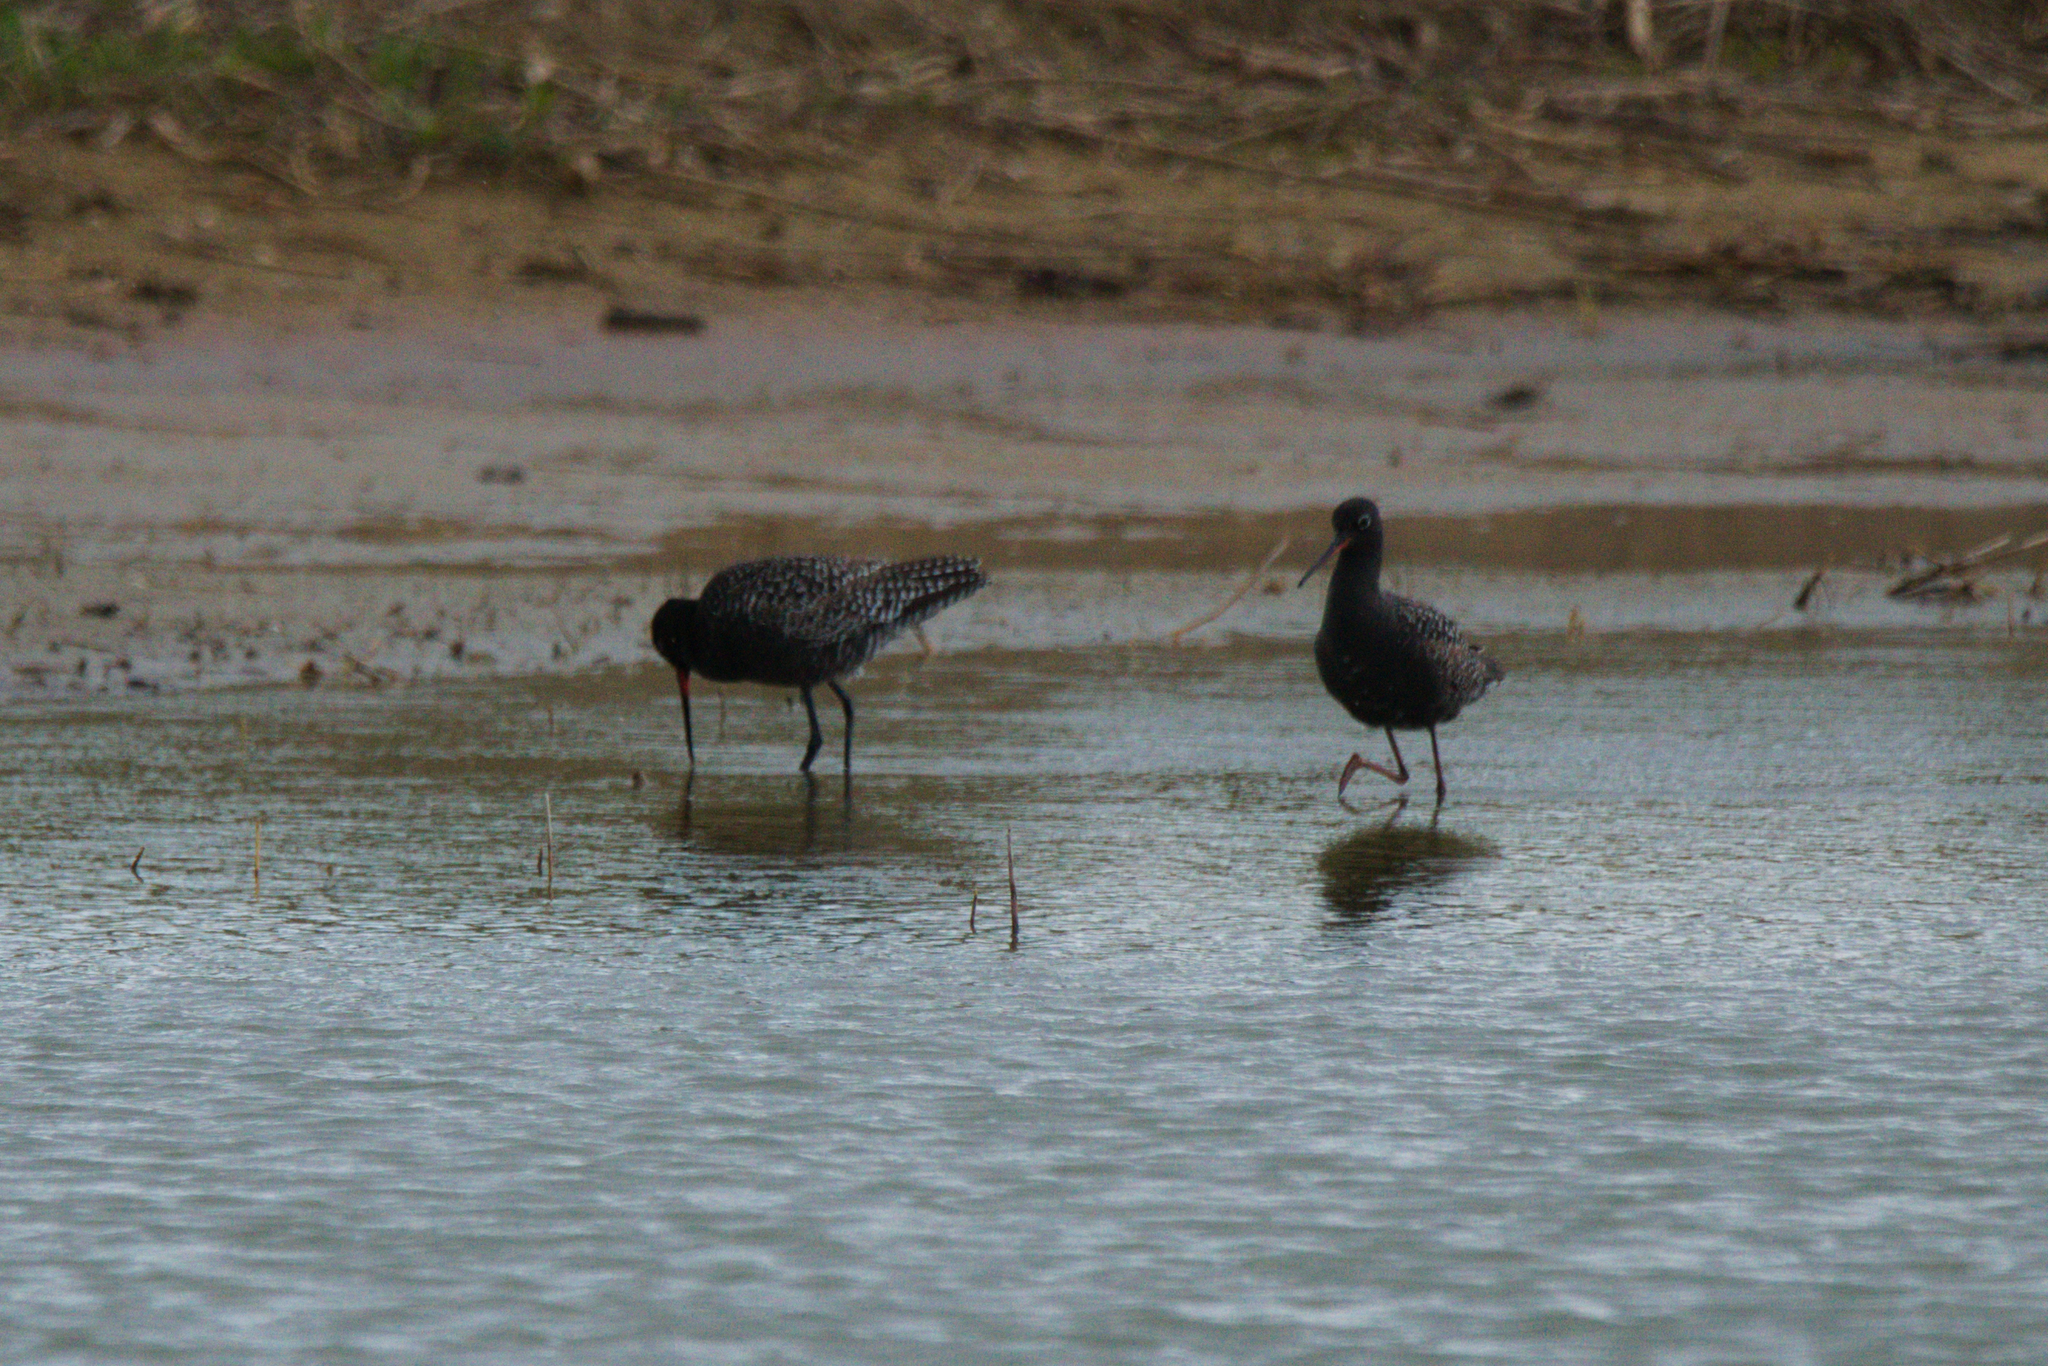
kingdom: Animalia
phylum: Chordata
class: Aves
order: Charadriiformes
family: Scolopacidae
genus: Tringa
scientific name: Tringa erythropus
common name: Spotted redshank
